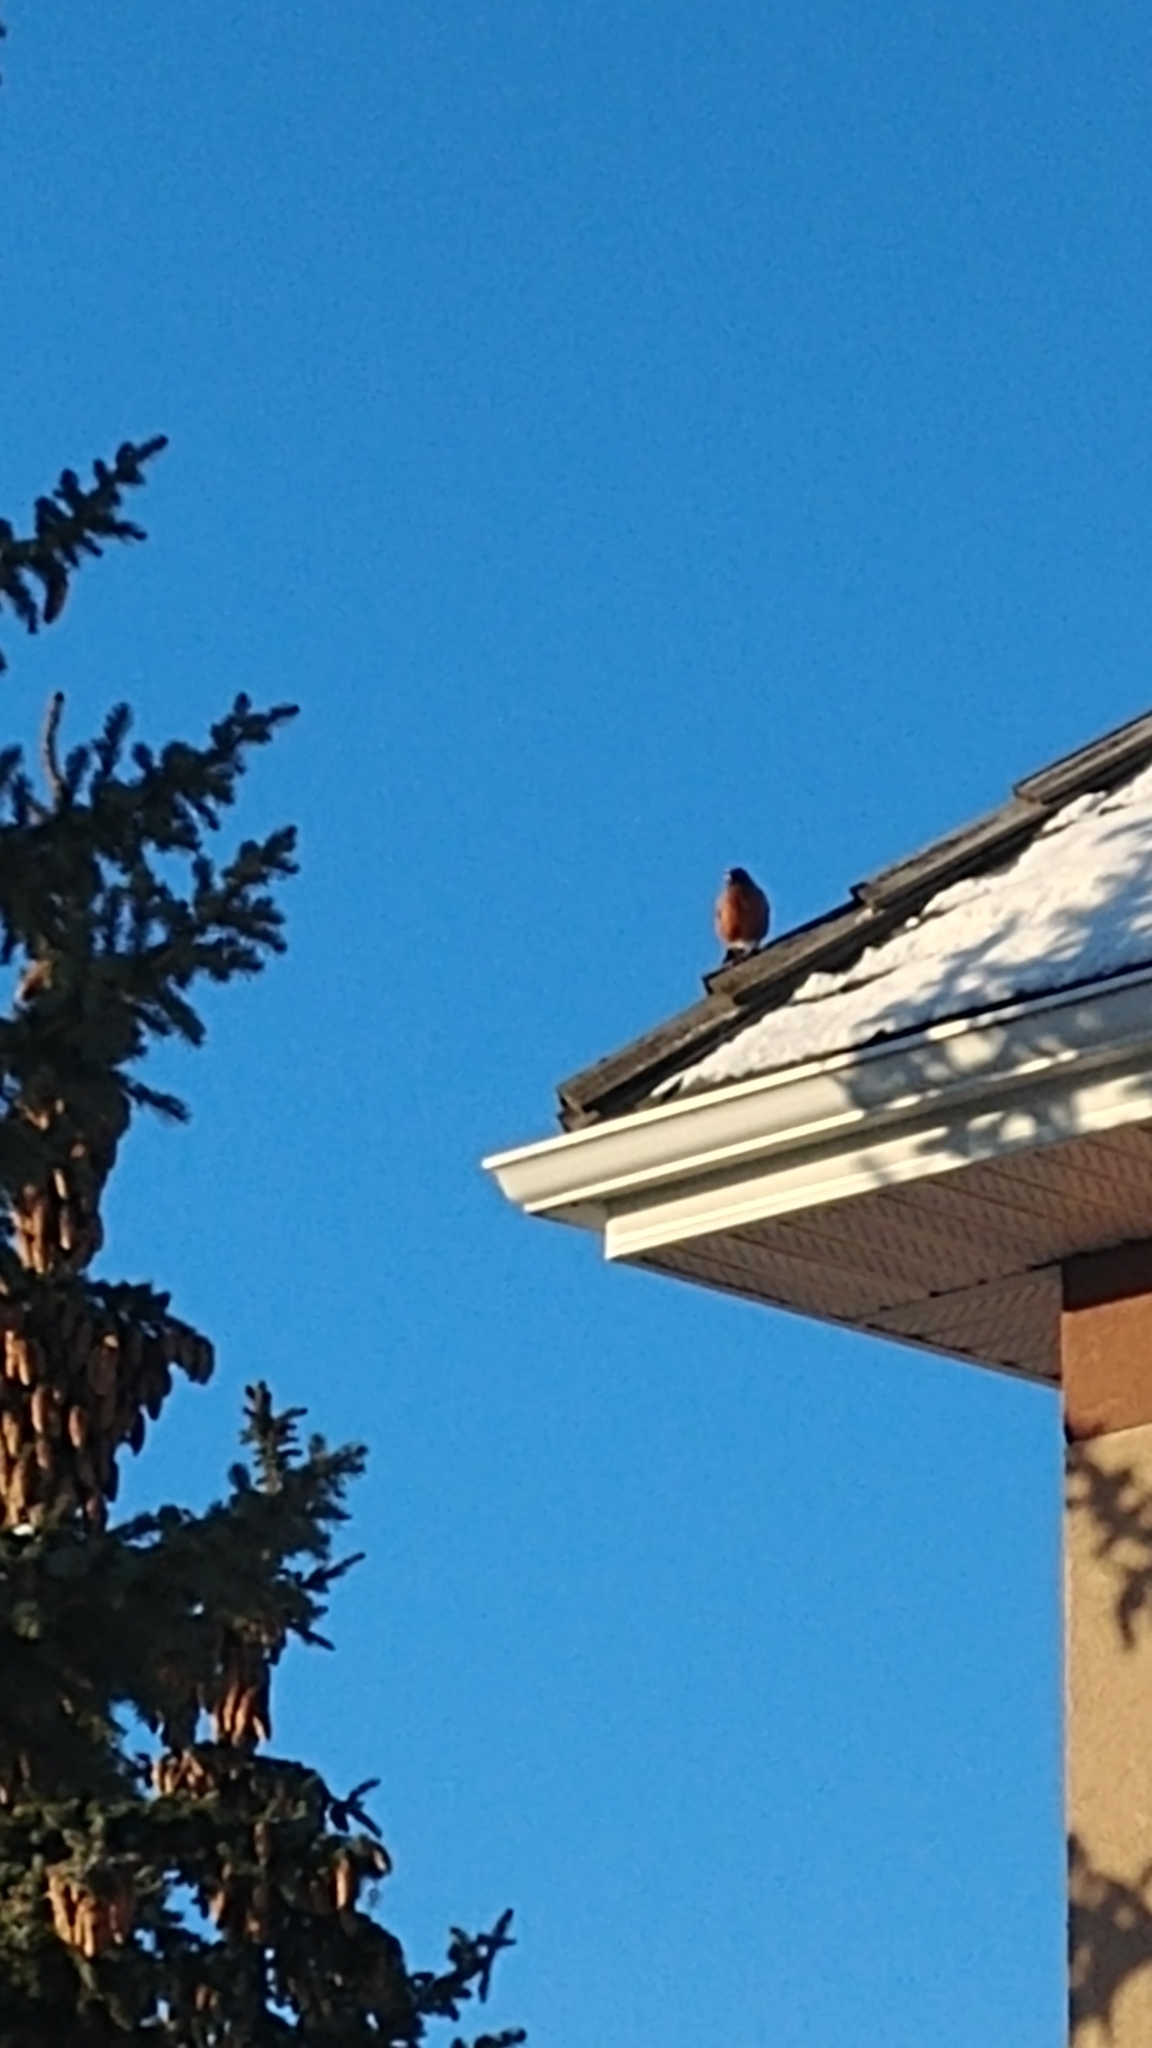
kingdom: Animalia
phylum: Chordata
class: Aves
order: Passeriformes
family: Turdidae
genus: Turdus
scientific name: Turdus migratorius
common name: American robin
